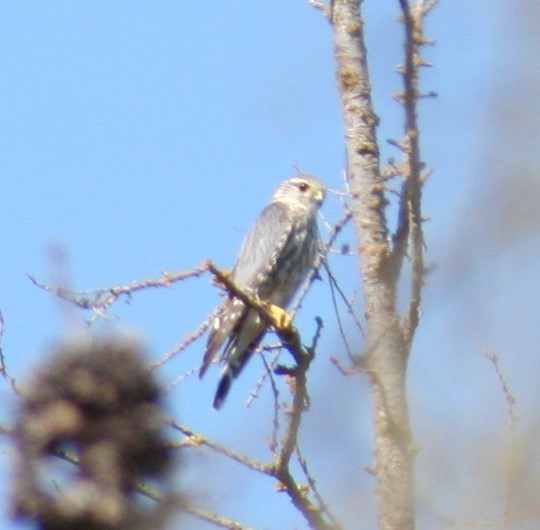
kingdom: Animalia
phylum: Chordata
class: Aves
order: Falconiformes
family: Falconidae
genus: Falco
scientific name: Falco columbarius
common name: Merlin
